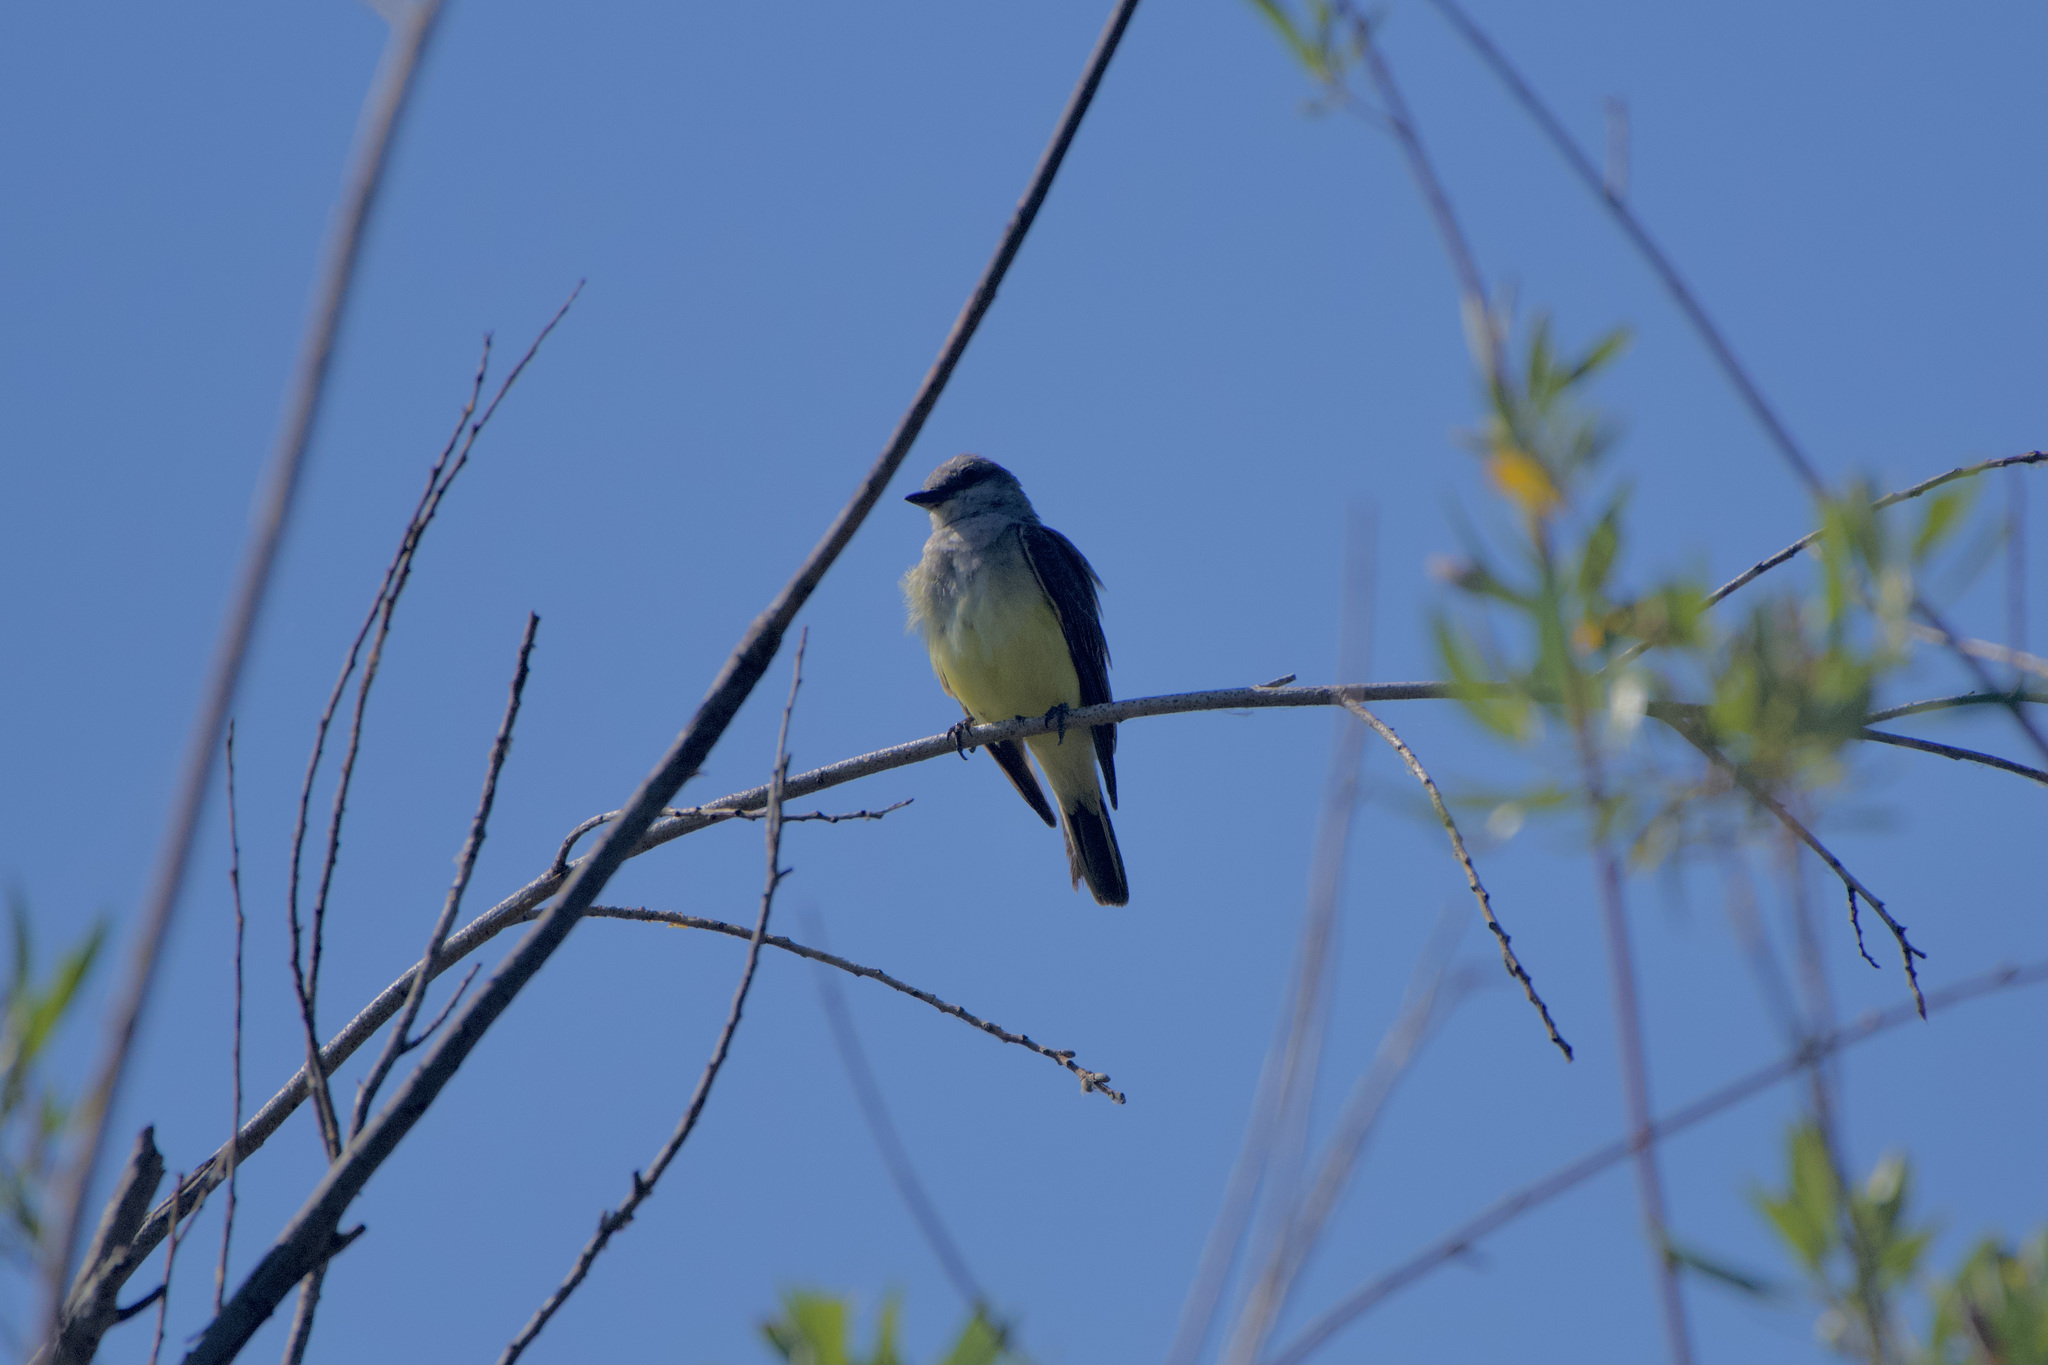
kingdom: Animalia
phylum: Chordata
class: Aves
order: Passeriformes
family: Tyrannidae
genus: Tyrannus
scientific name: Tyrannus verticalis
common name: Western kingbird
